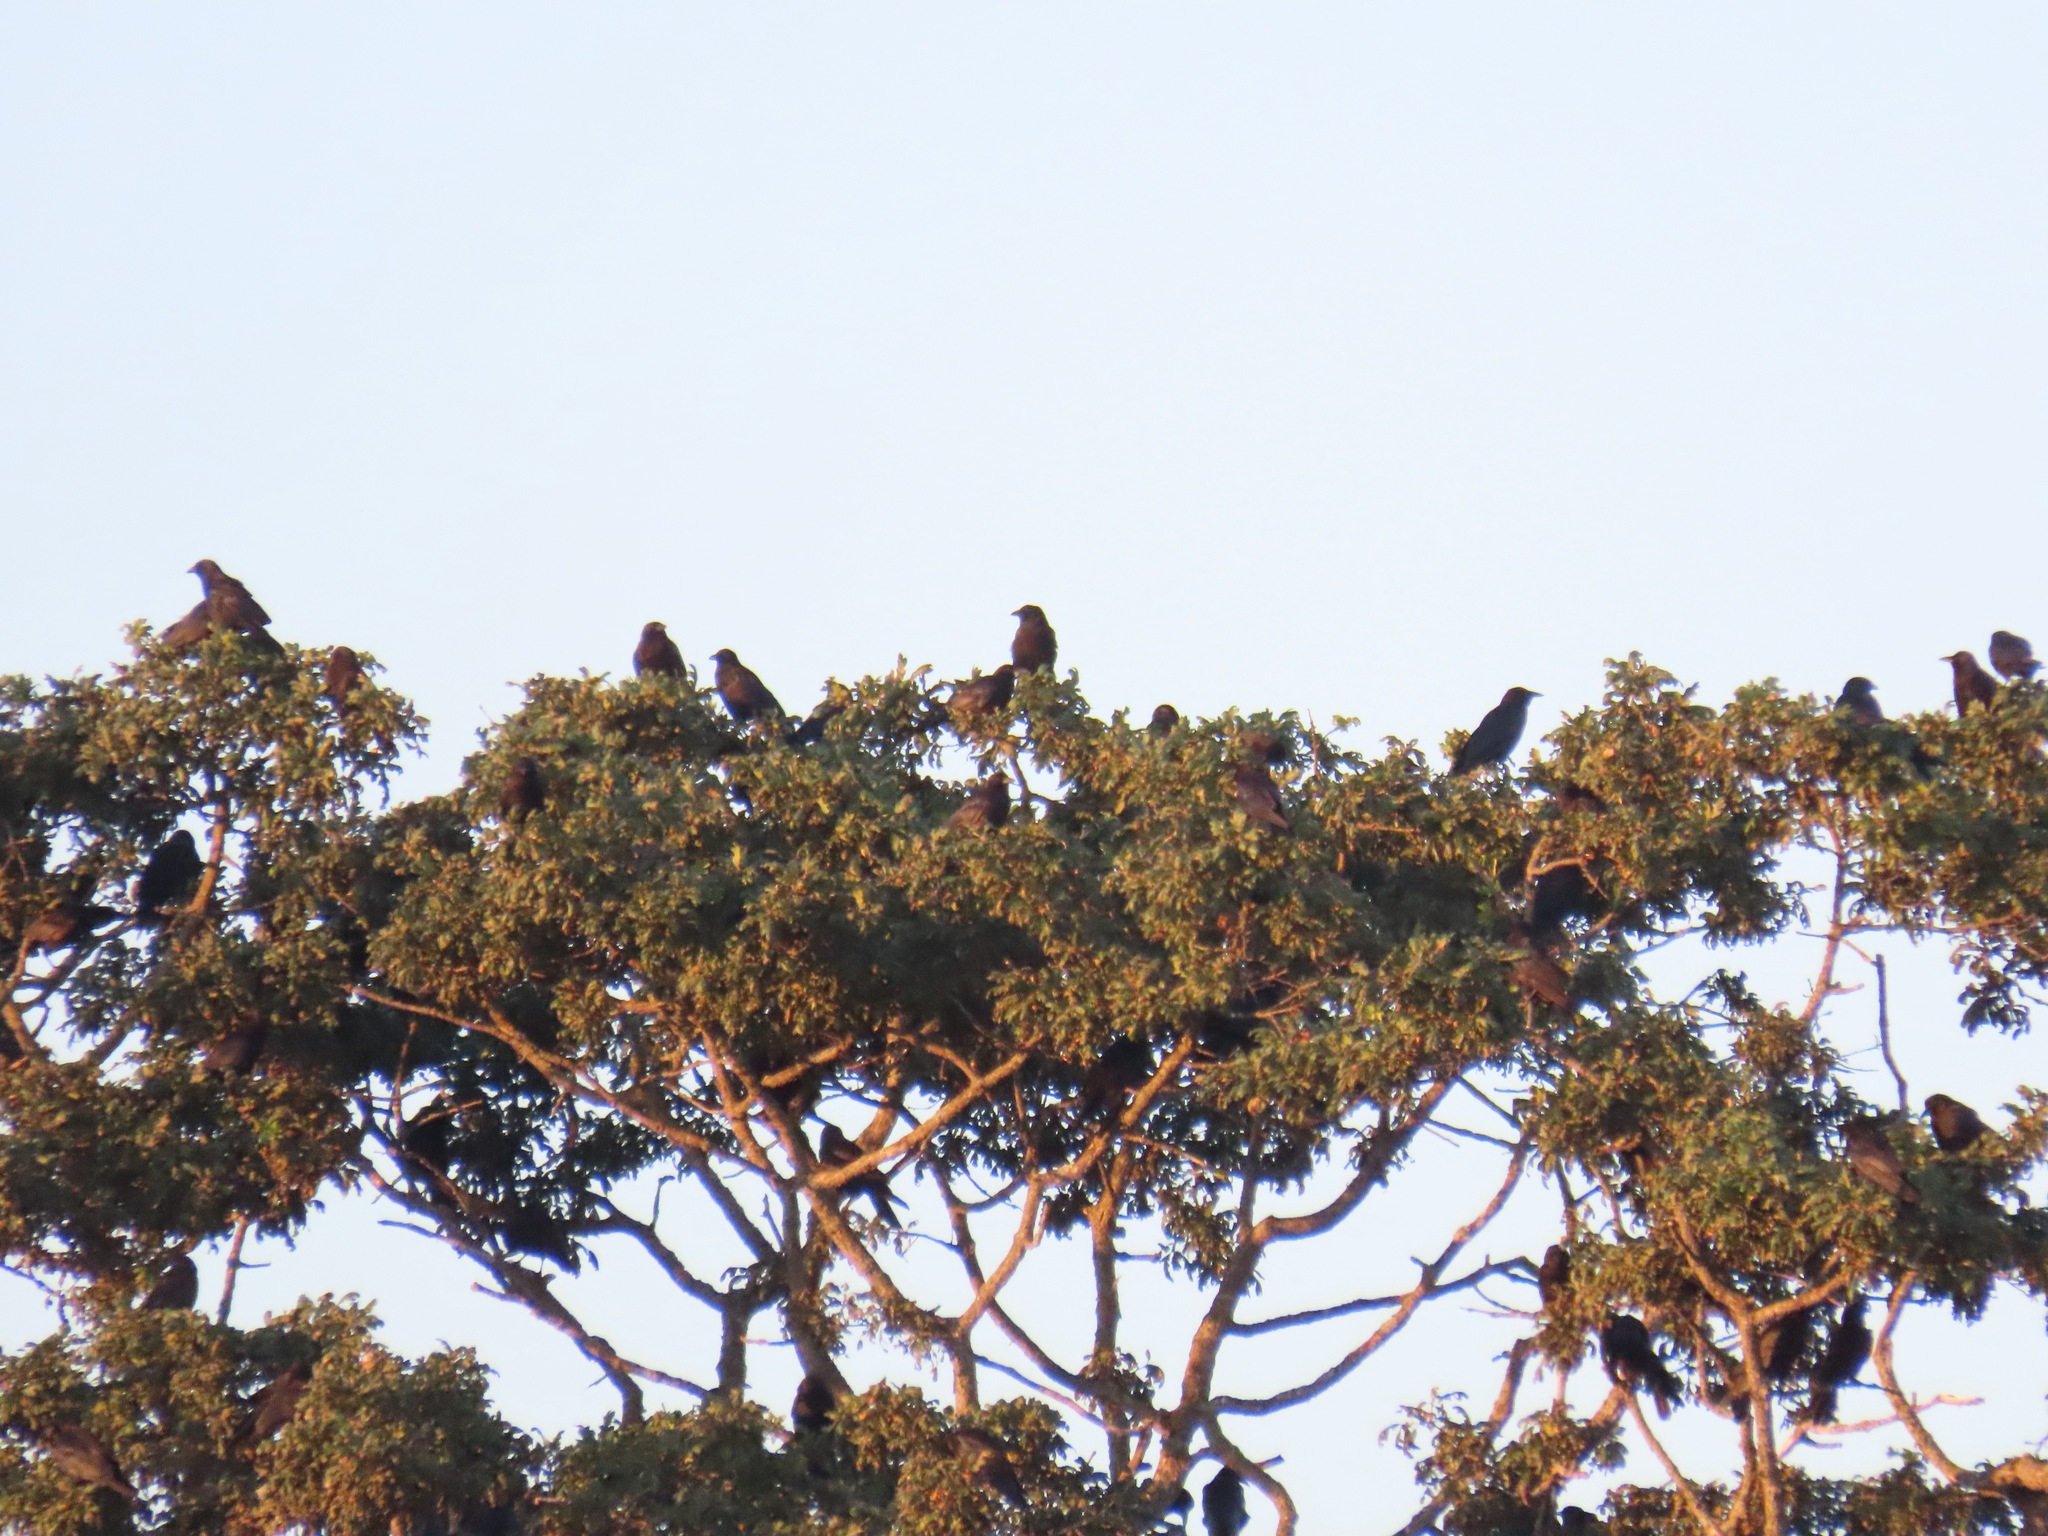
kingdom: Animalia
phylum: Chordata
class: Aves
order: Passeriformes
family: Corvidae
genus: Corvus
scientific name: Corvus brachyrhynchos
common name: American crow
